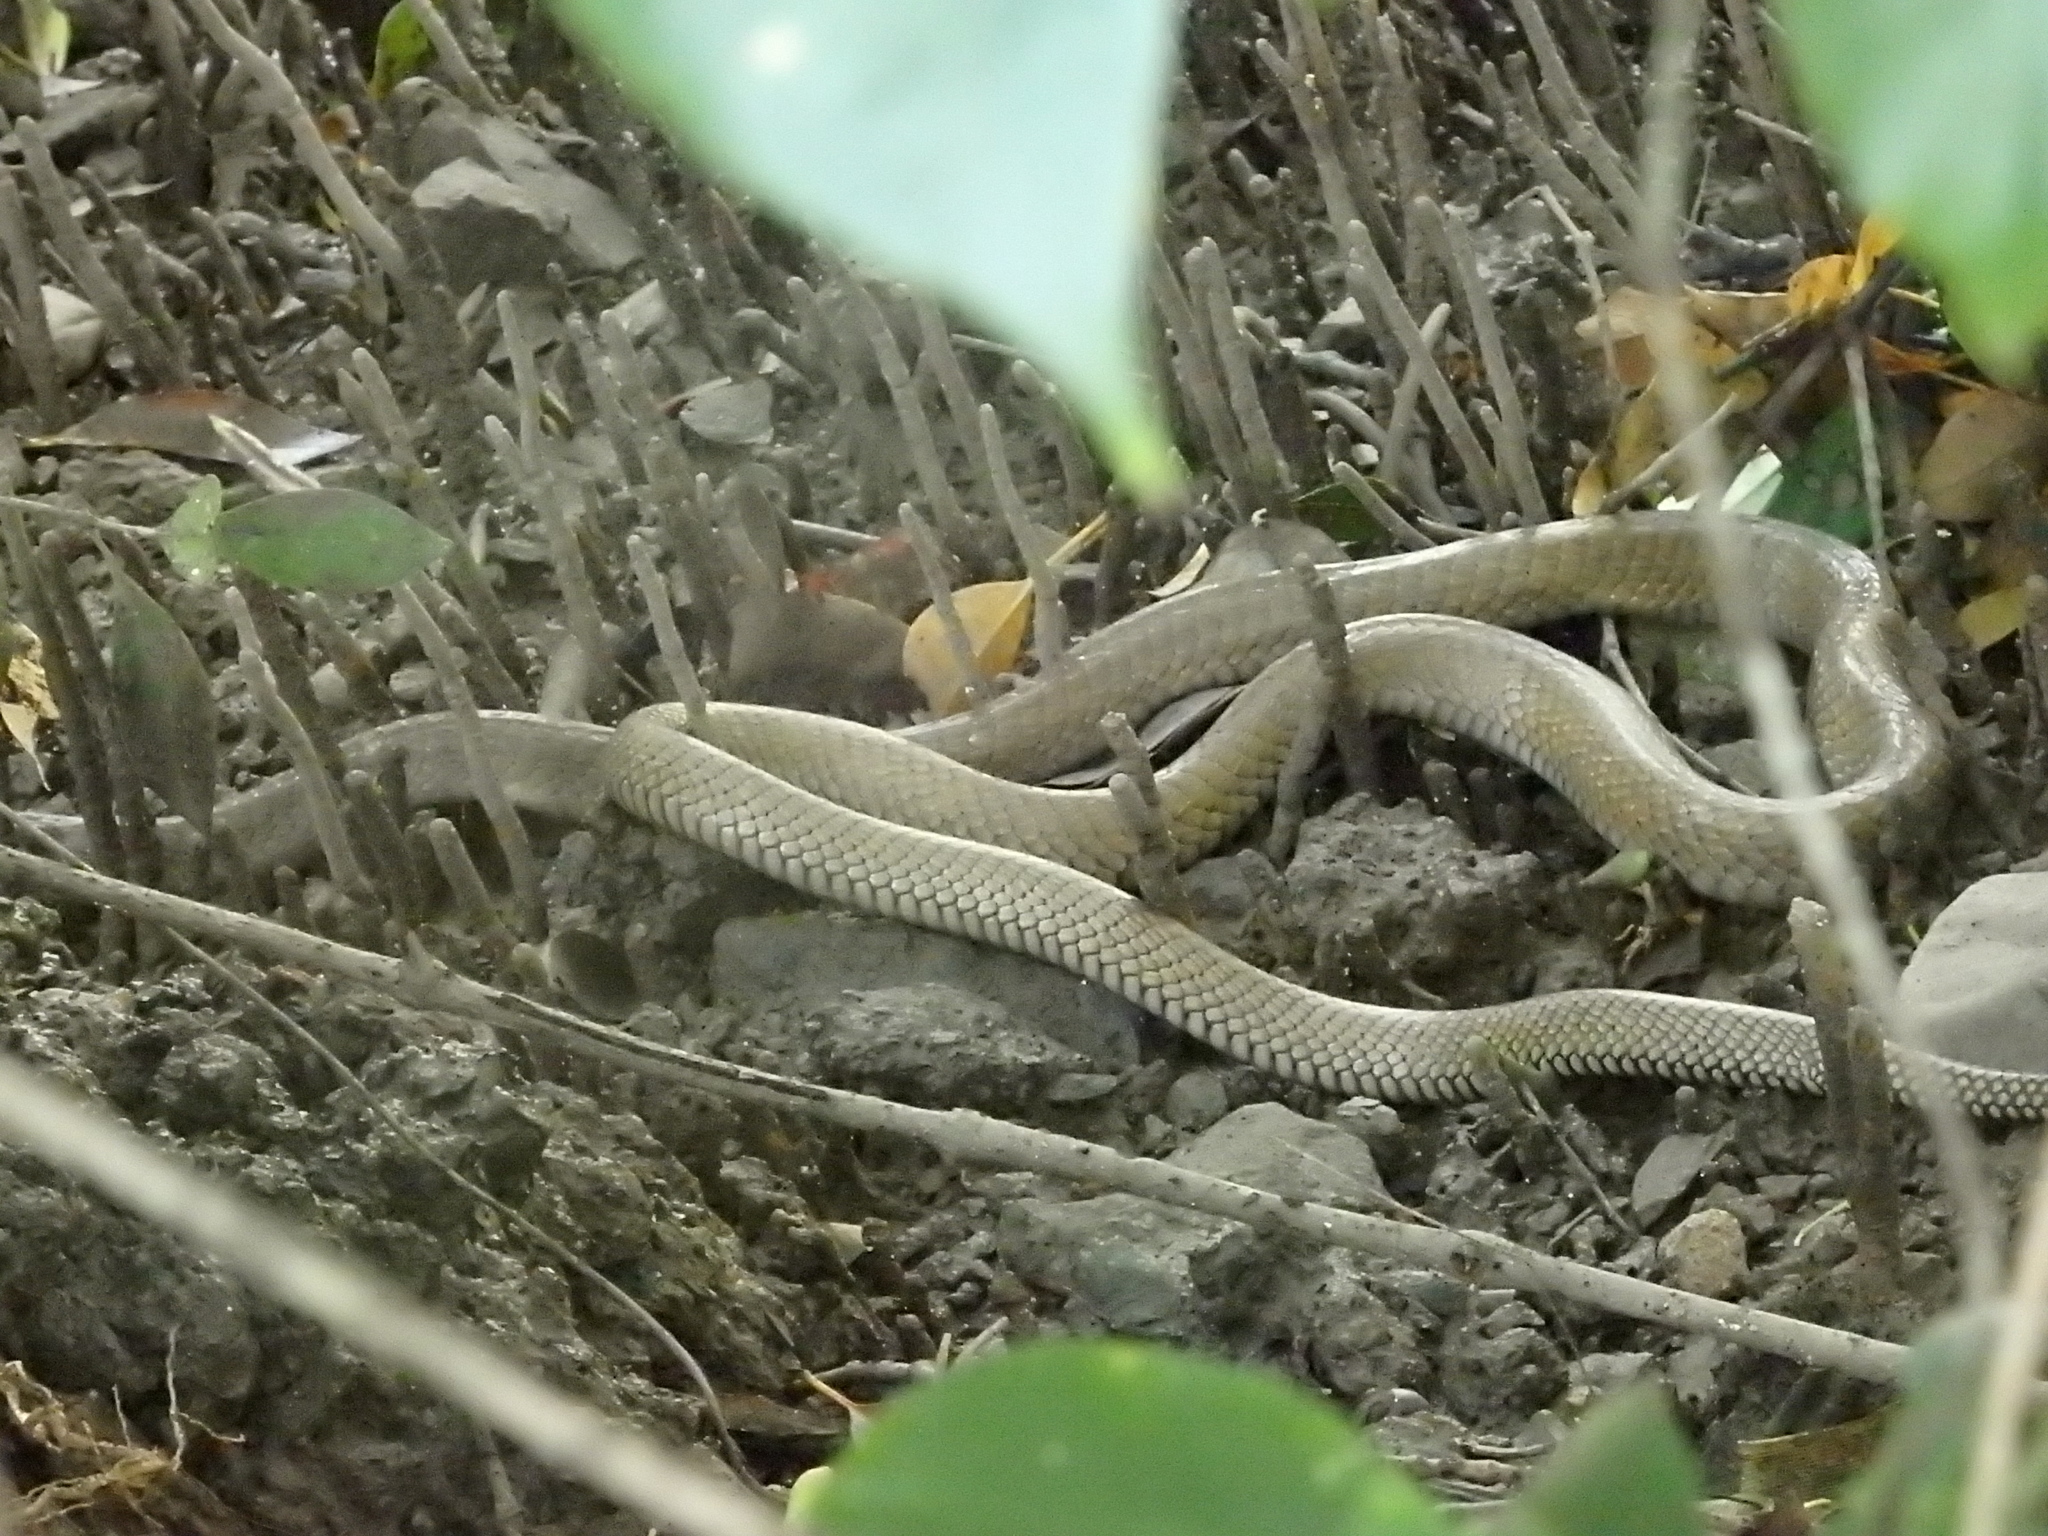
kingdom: Animalia
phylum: Chordata
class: Squamata
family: Elapidae
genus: Ophiophagus
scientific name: Ophiophagus hannah
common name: Hamadryad
